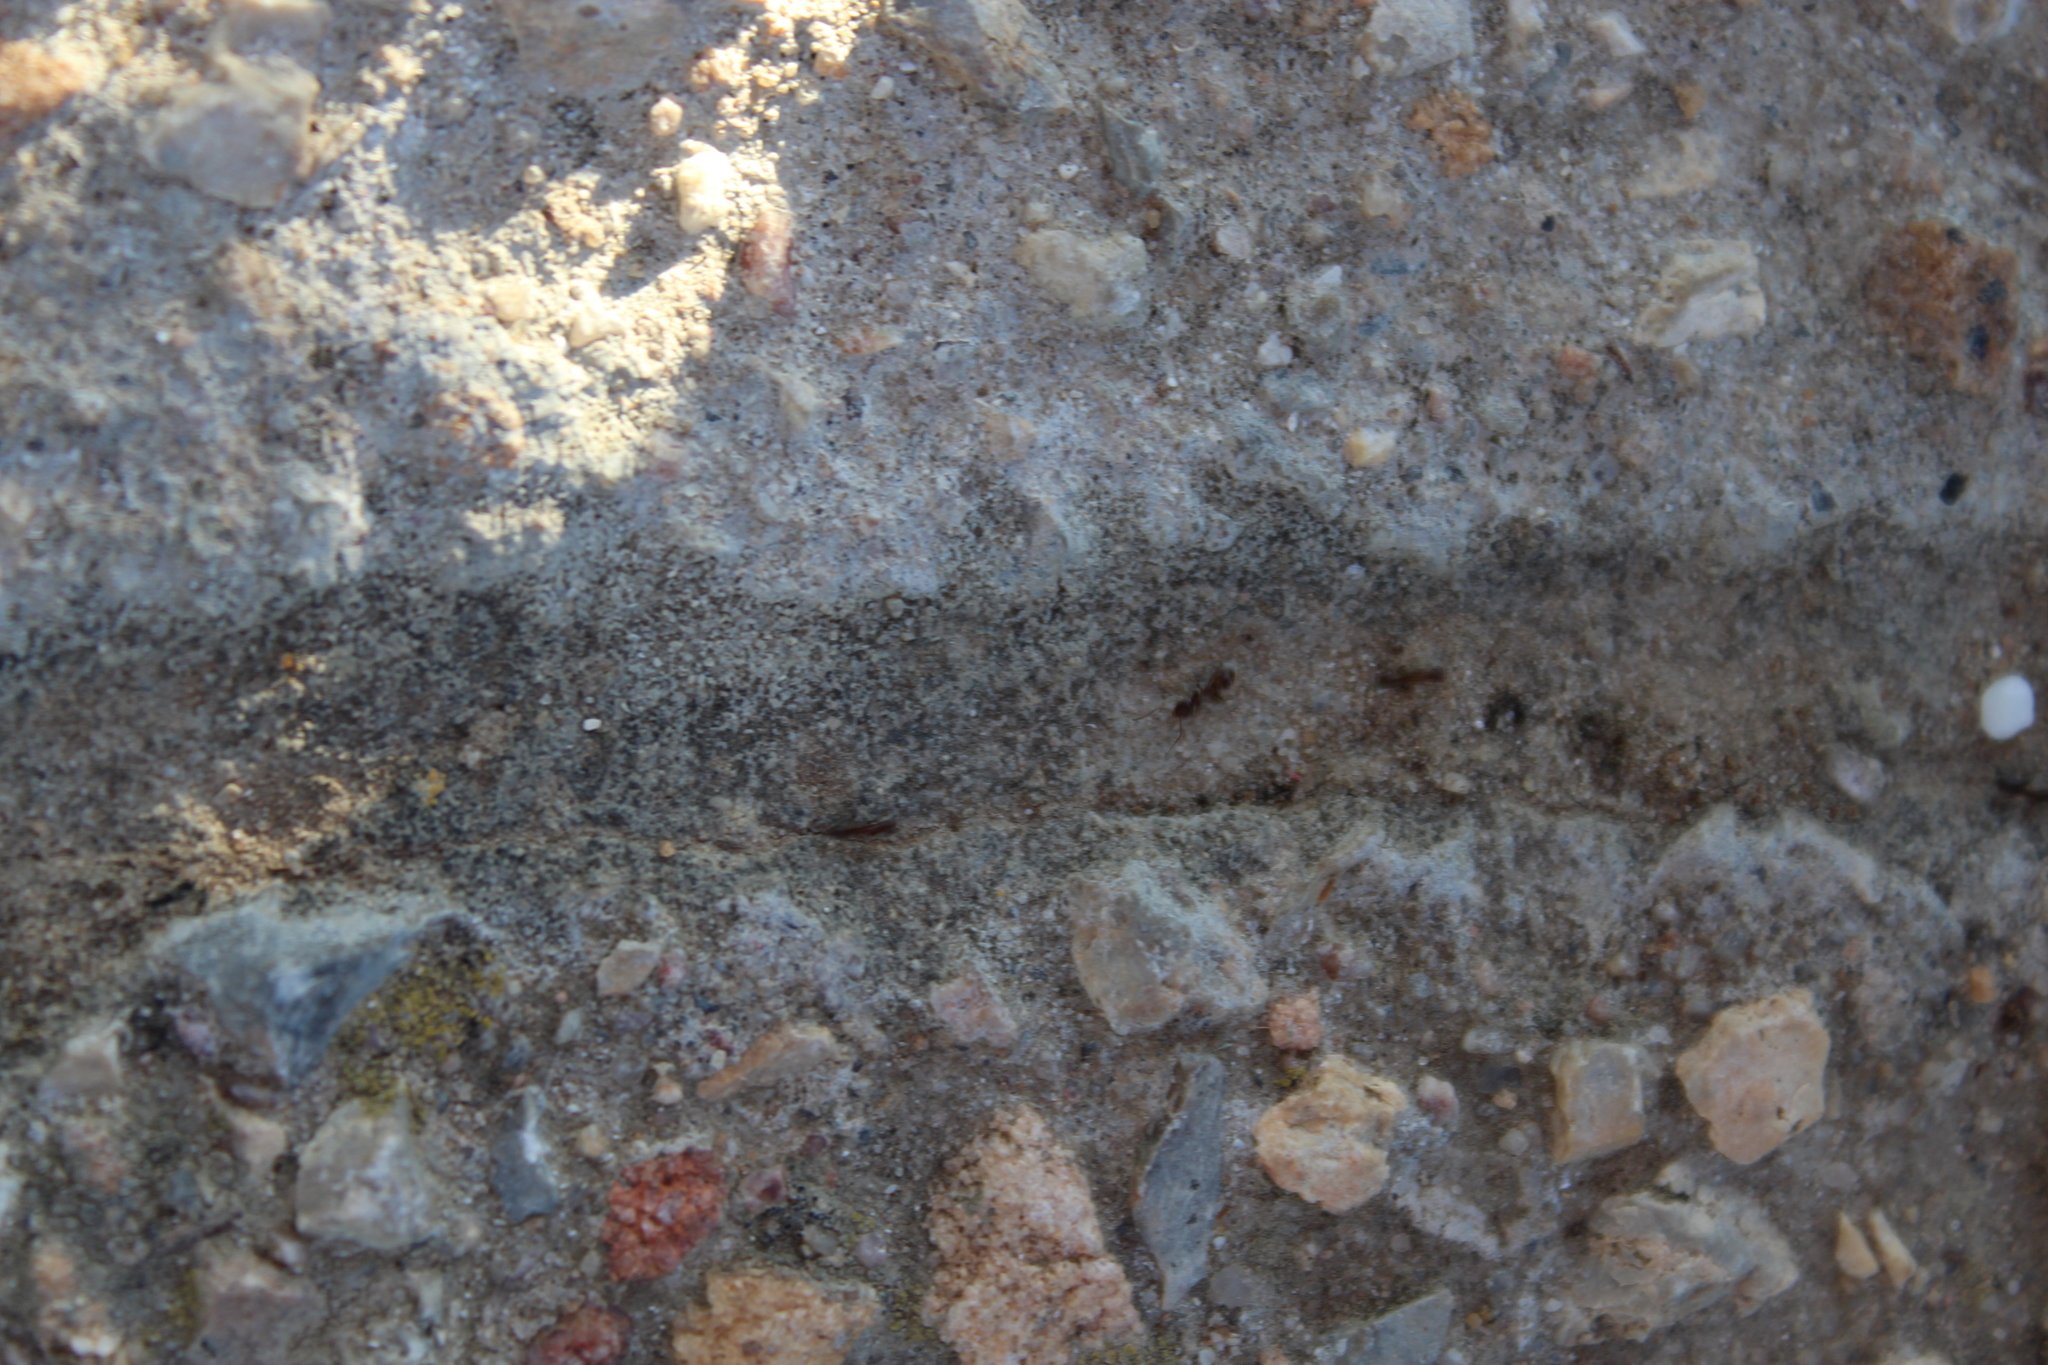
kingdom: Animalia
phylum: Arthropoda
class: Insecta
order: Hymenoptera
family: Formicidae
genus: Linepithema
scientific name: Linepithema humile
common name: Argentine ant
